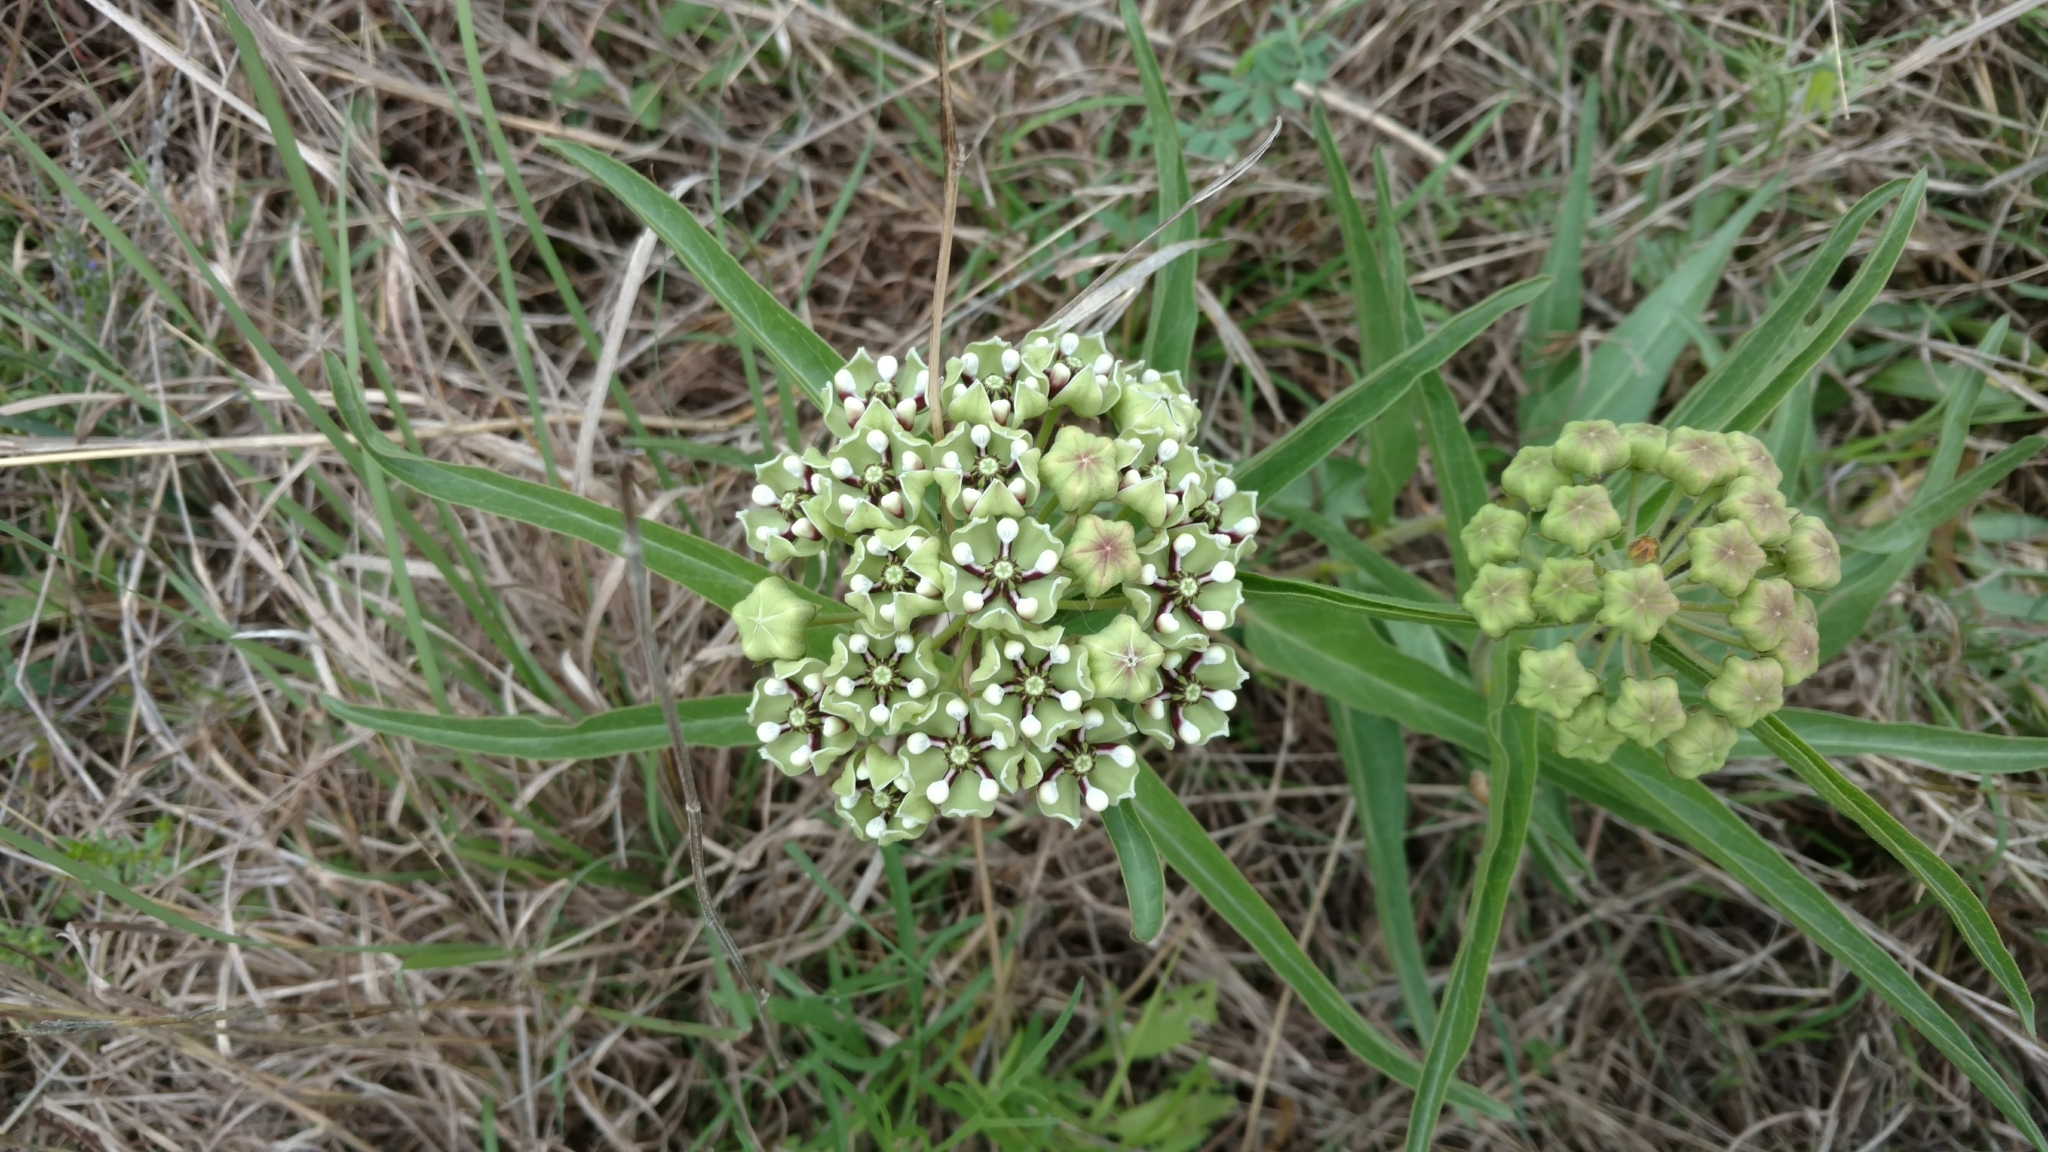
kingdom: Plantae
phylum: Tracheophyta
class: Magnoliopsida
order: Gentianales
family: Apocynaceae
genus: Asclepias
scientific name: Asclepias asperula
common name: Antelope horns
